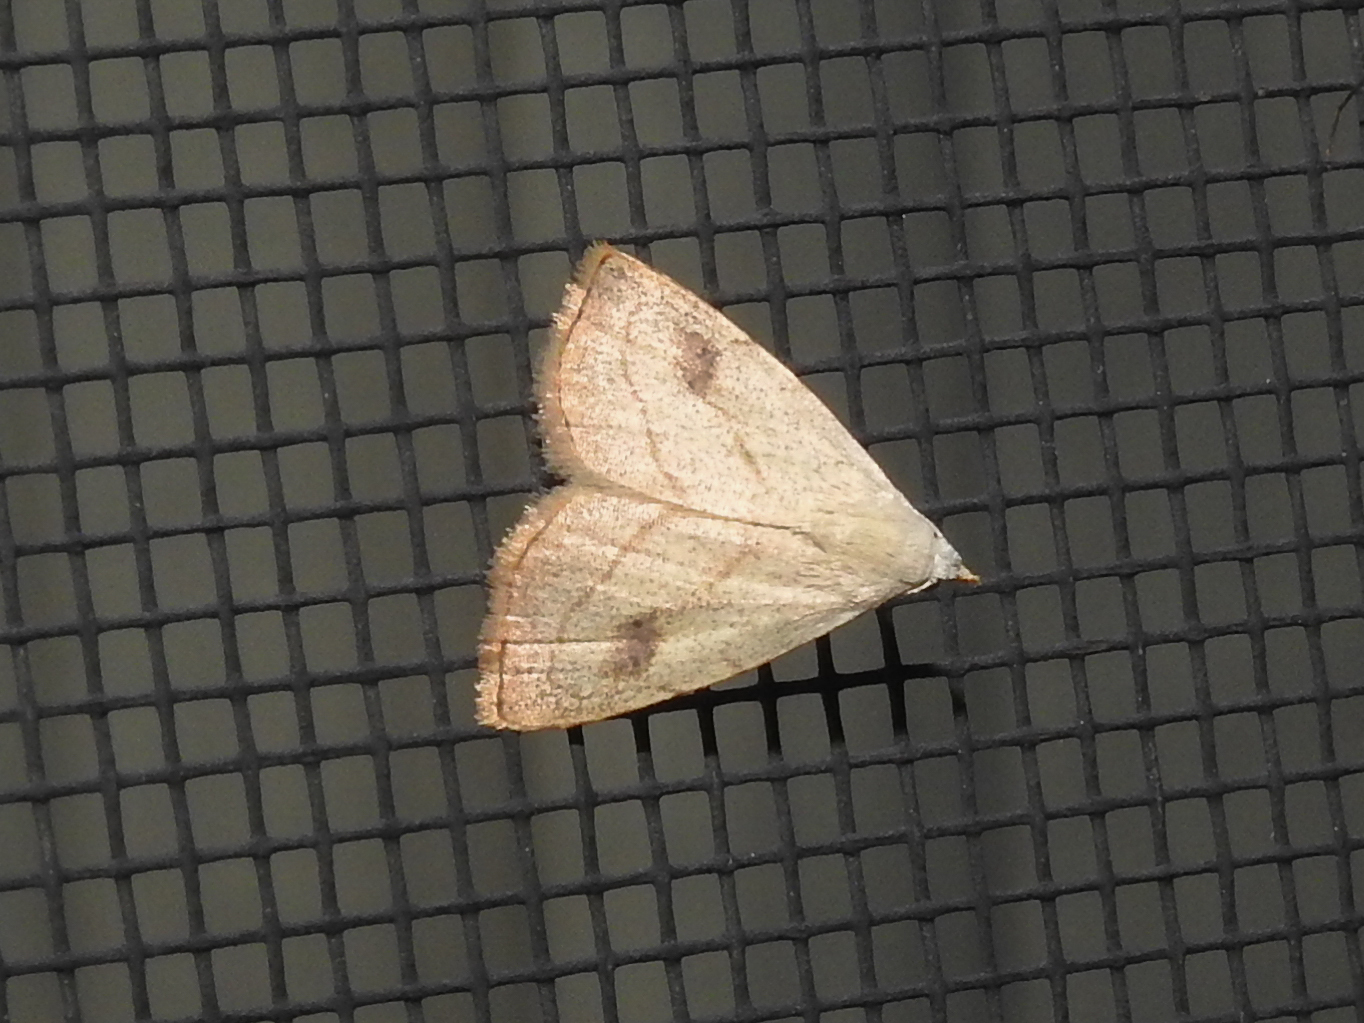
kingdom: Animalia
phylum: Arthropoda
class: Insecta
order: Lepidoptera
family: Erebidae
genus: Rivula
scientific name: Rivula propinqualis
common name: Spotted grass moth
